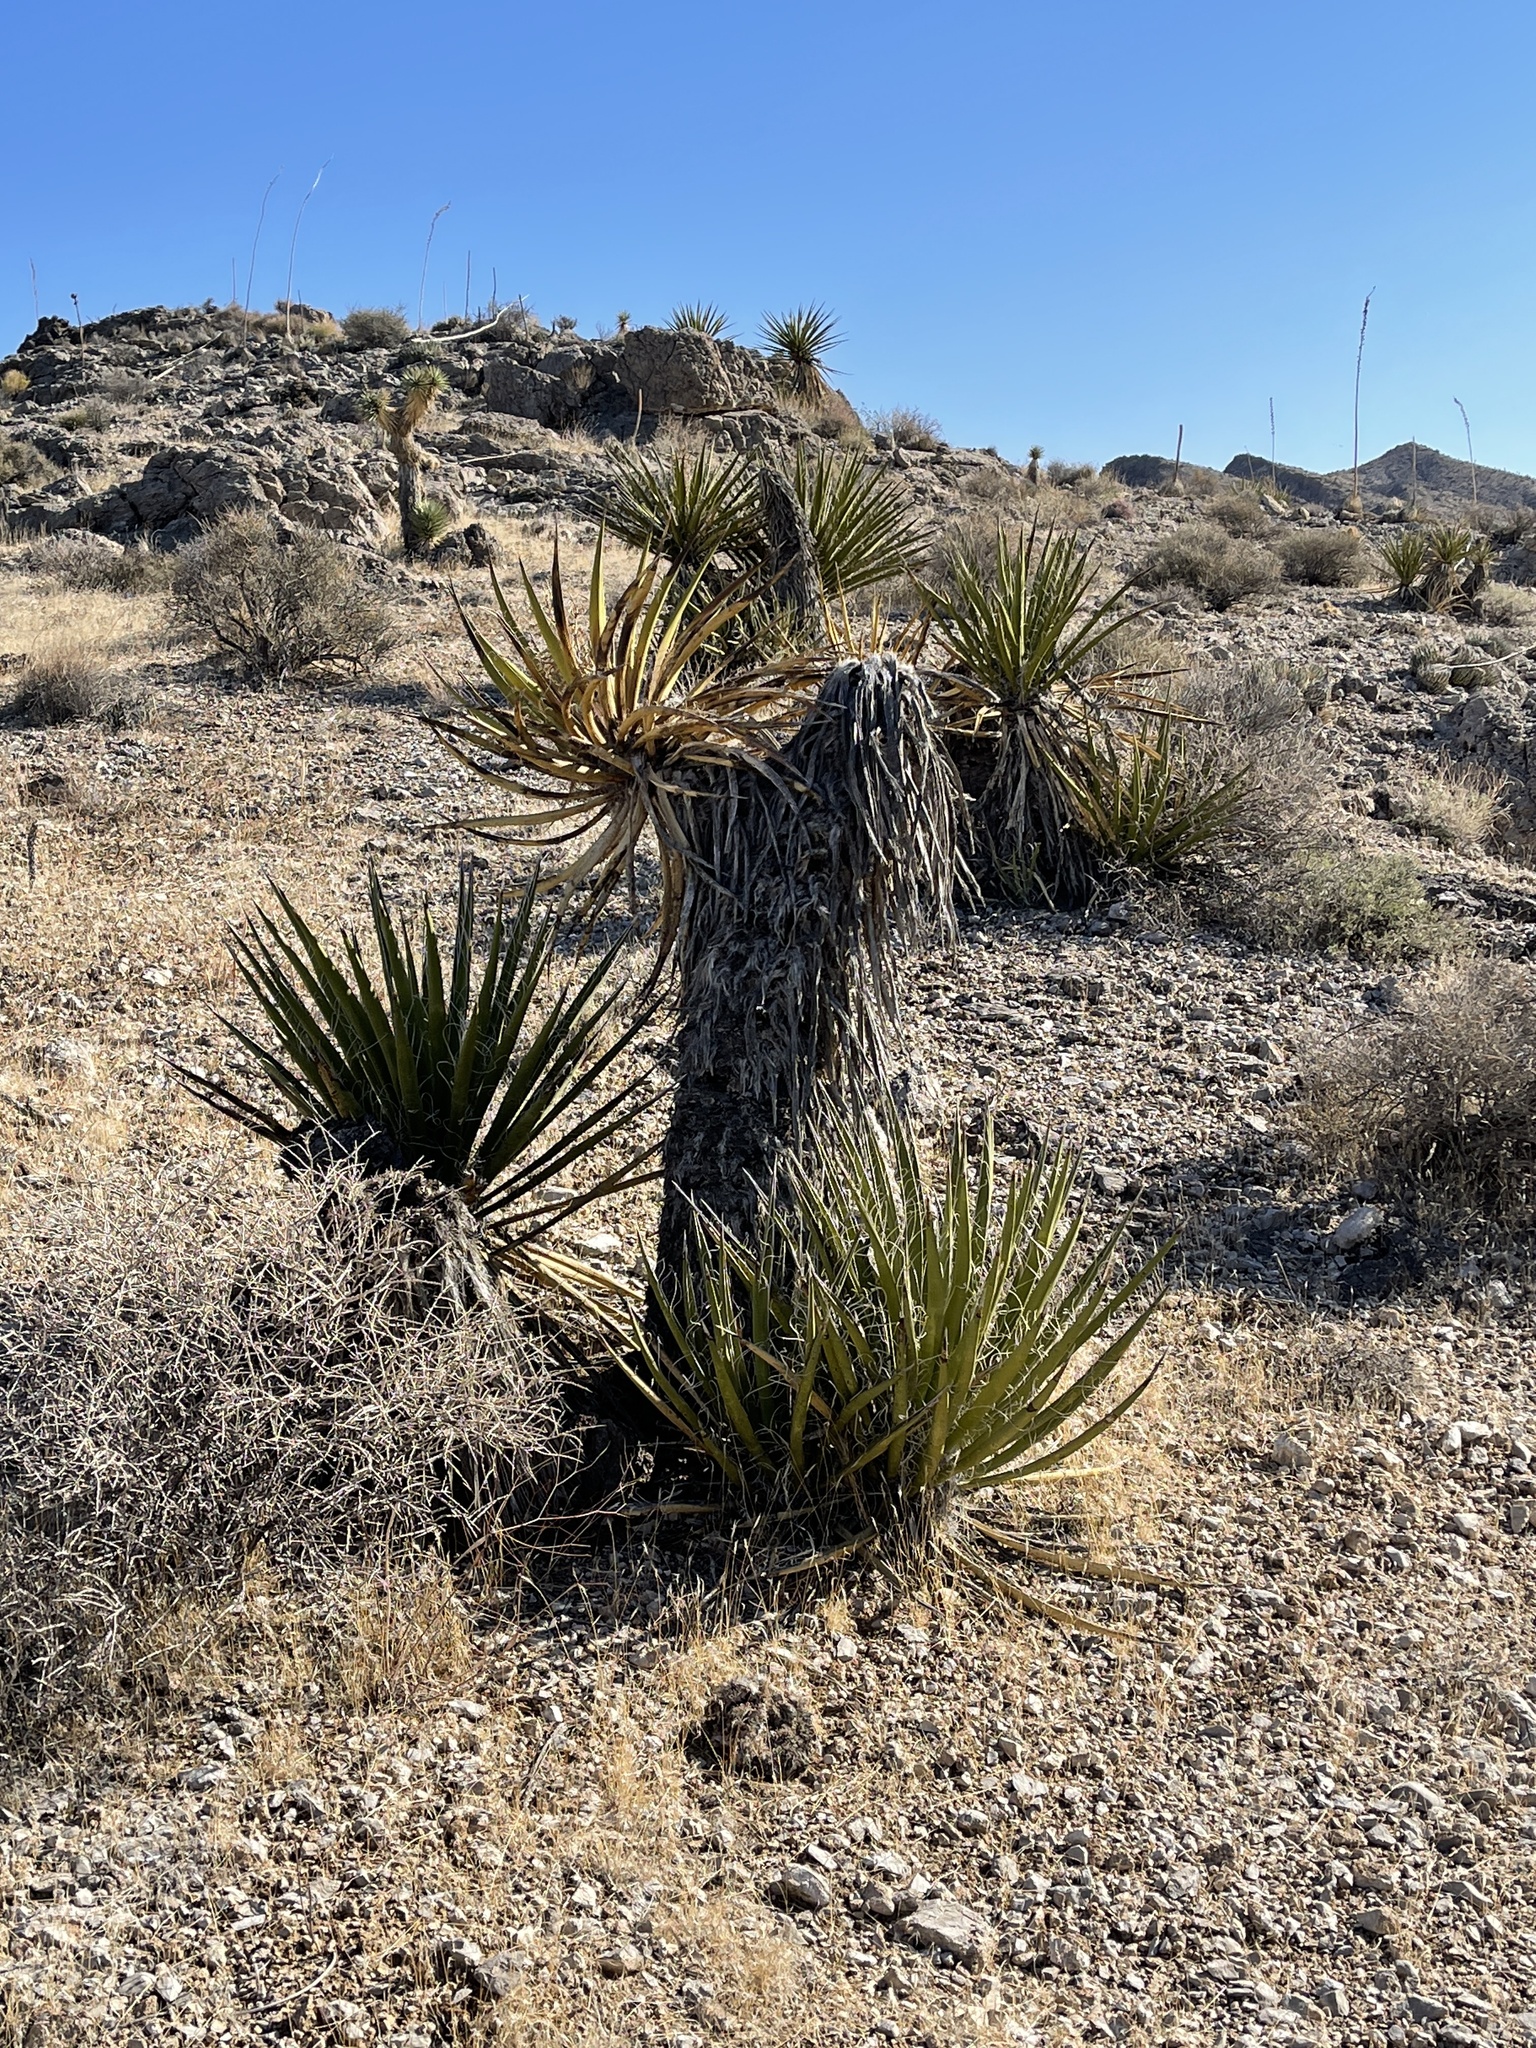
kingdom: Plantae
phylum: Tracheophyta
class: Liliopsida
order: Asparagales
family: Asparagaceae
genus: Yucca
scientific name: Yucca schidigera
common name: Mojave yucca
